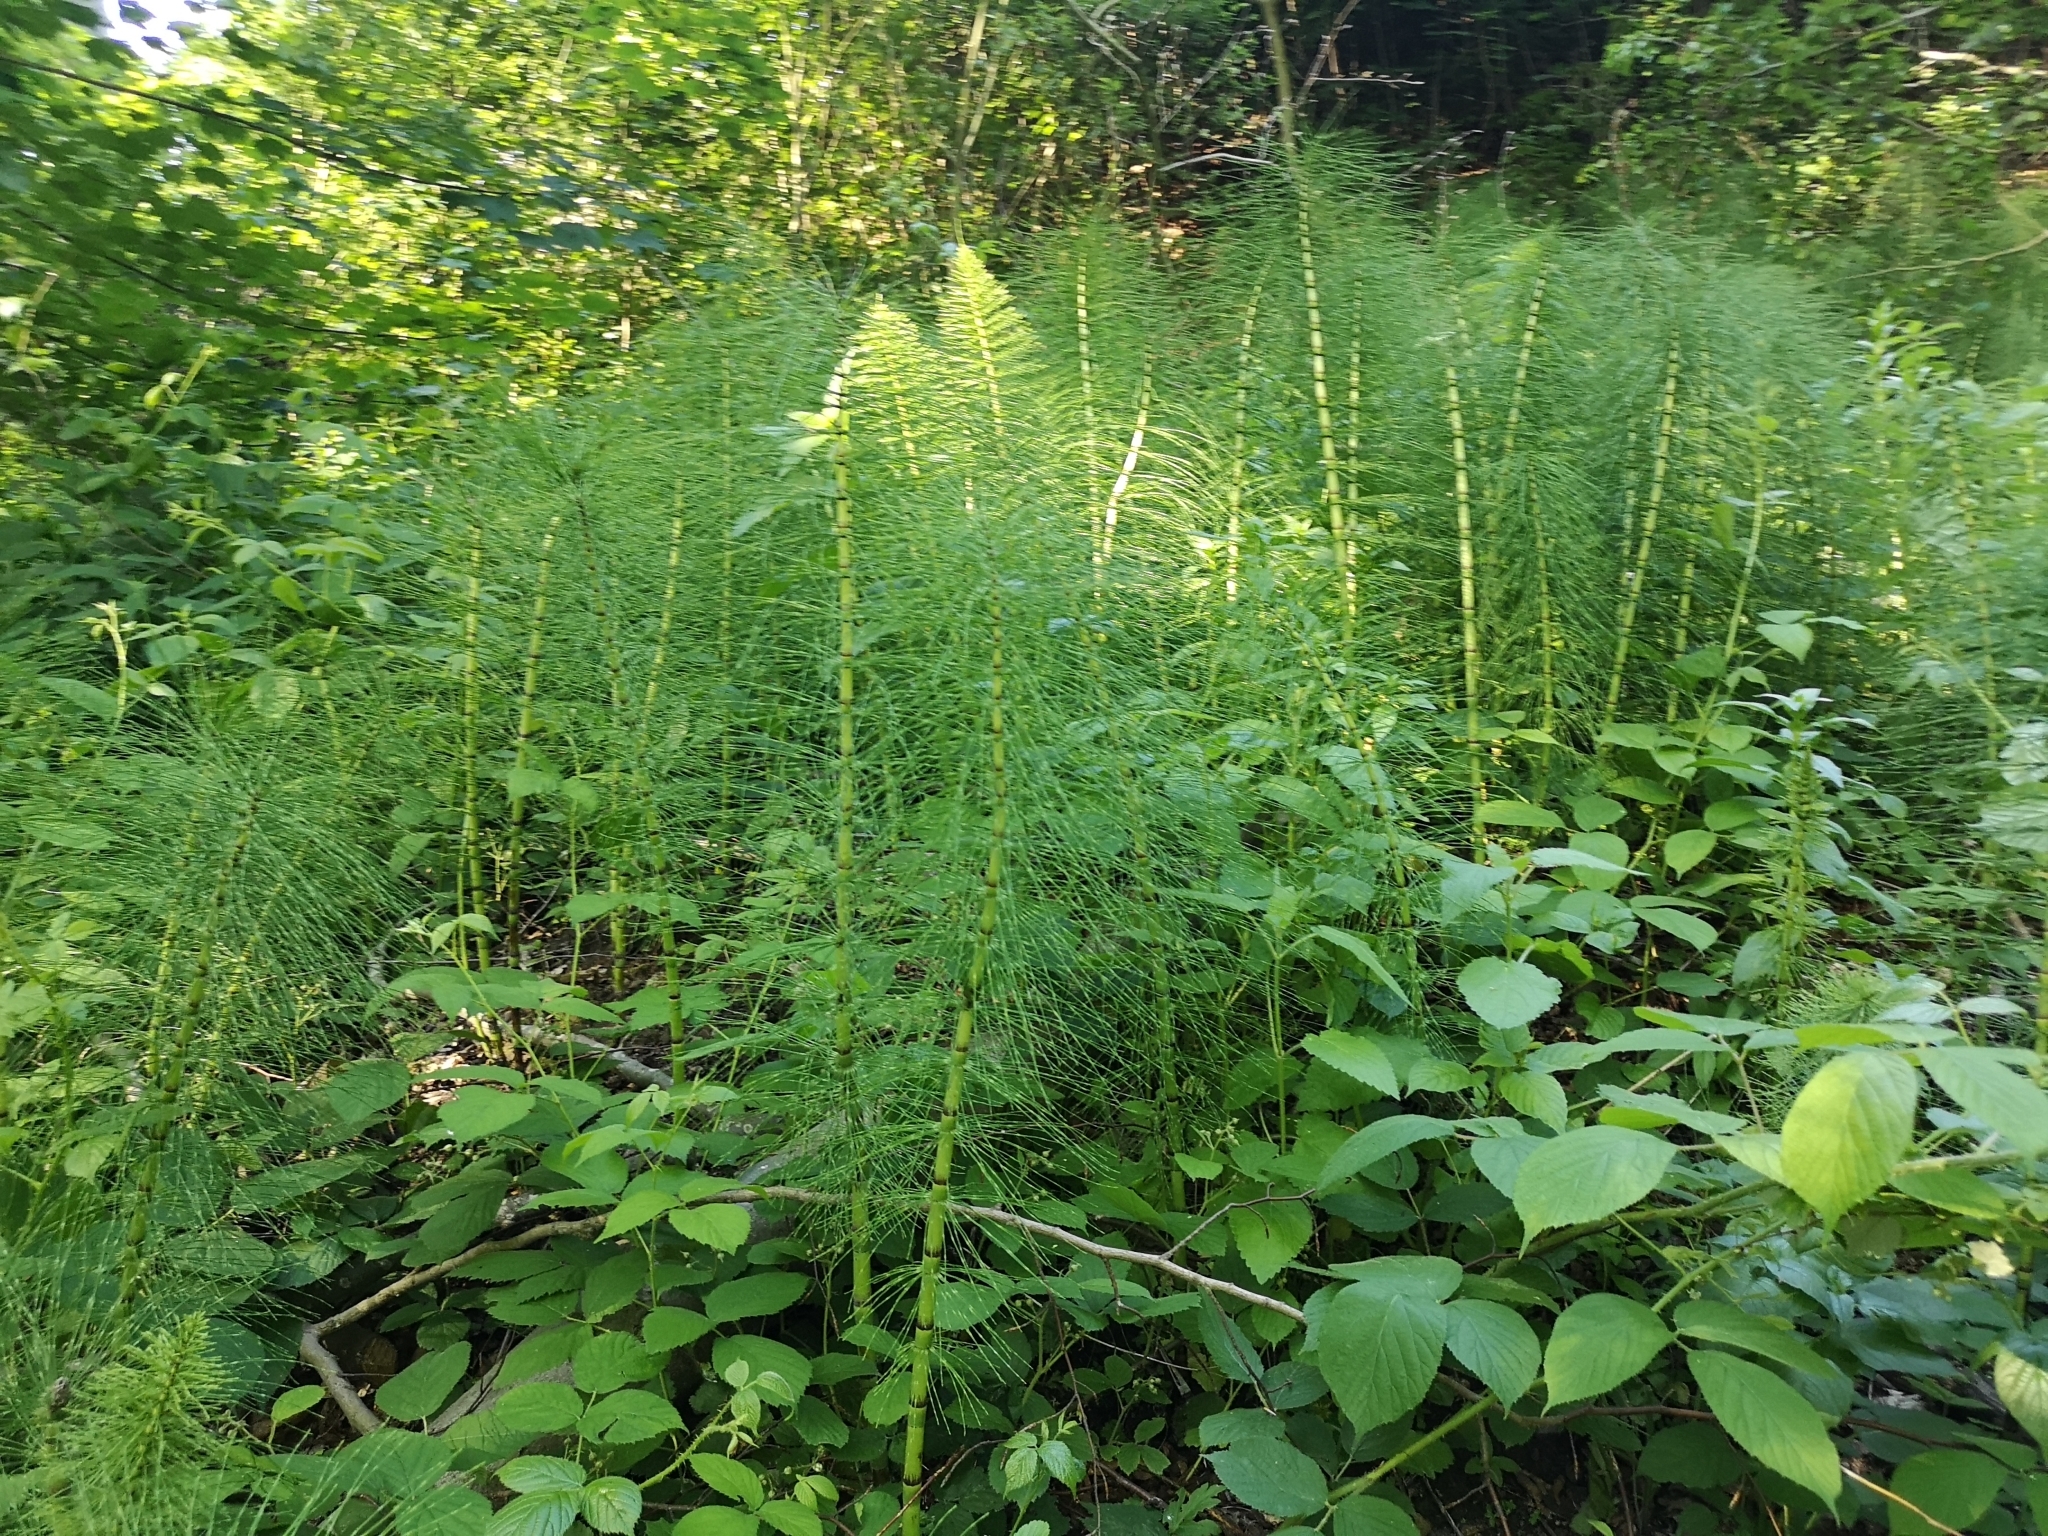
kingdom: Plantae
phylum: Tracheophyta
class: Polypodiopsida
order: Equisetales
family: Equisetaceae
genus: Equisetum
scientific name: Equisetum telmateia
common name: Great horsetail
